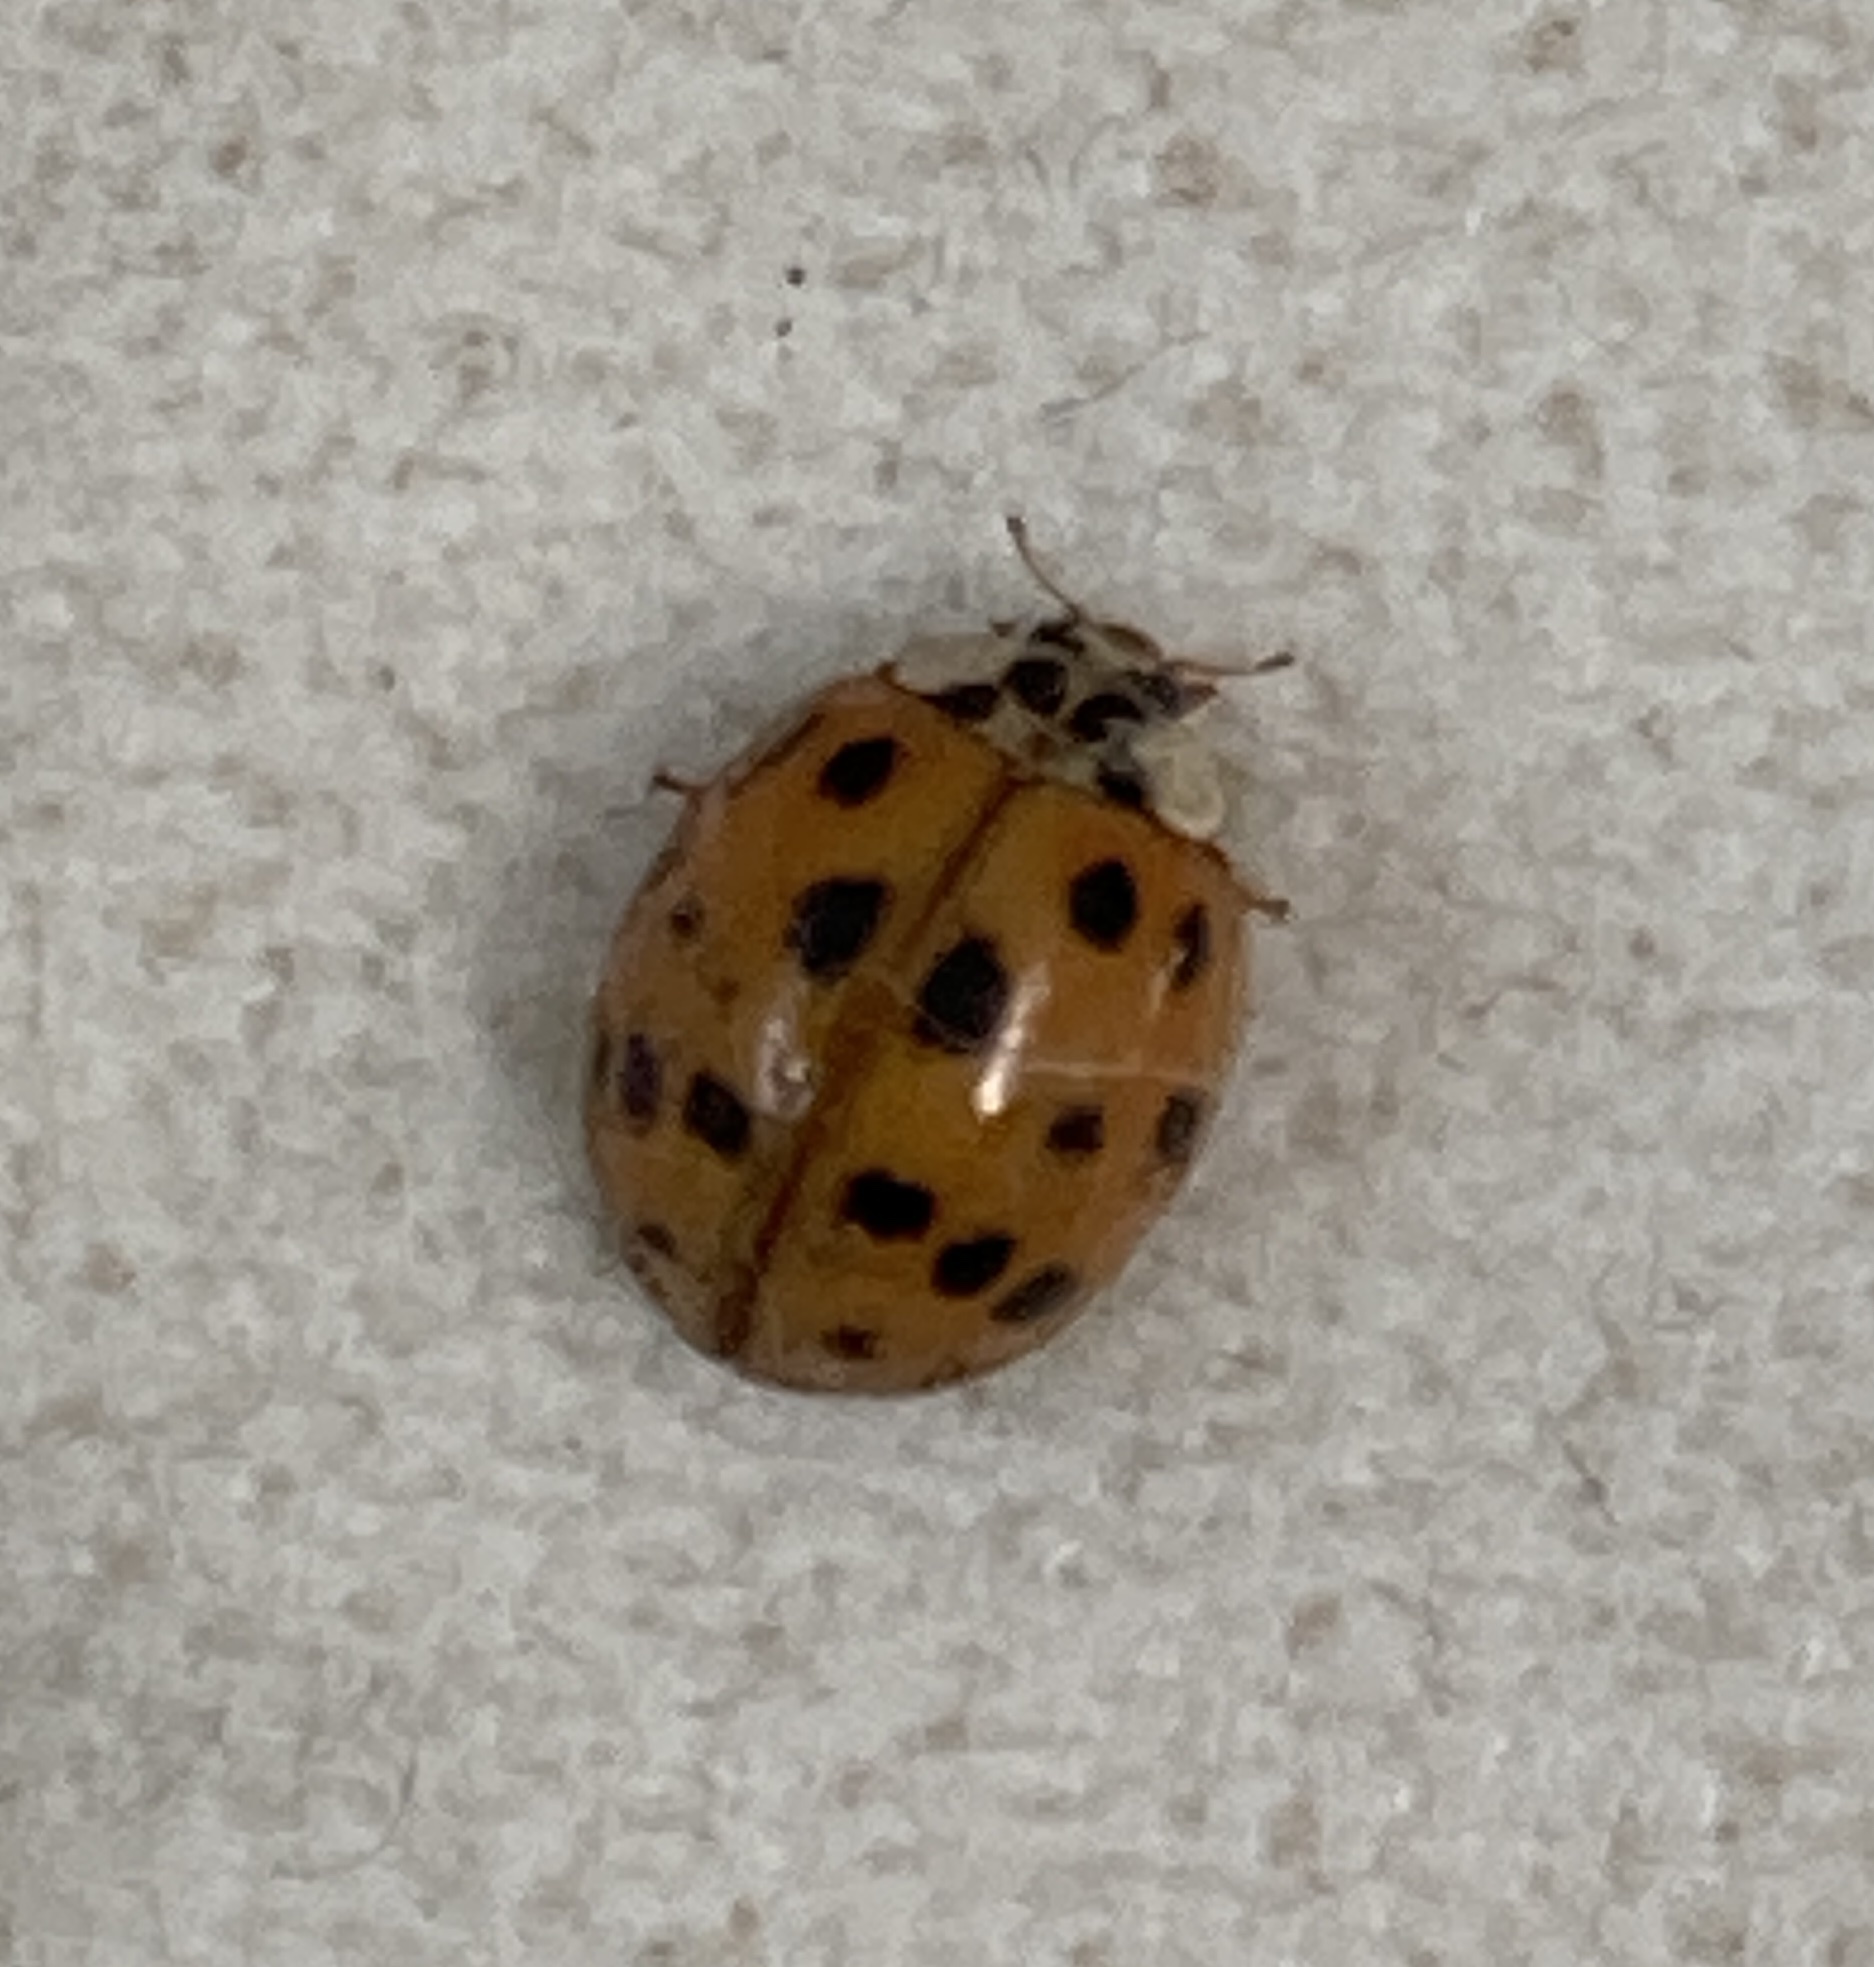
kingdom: Animalia
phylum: Arthropoda
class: Insecta
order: Coleoptera
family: Coccinellidae
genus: Harmonia
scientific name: Harmonia axyridis
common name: Harlequin ladybird
